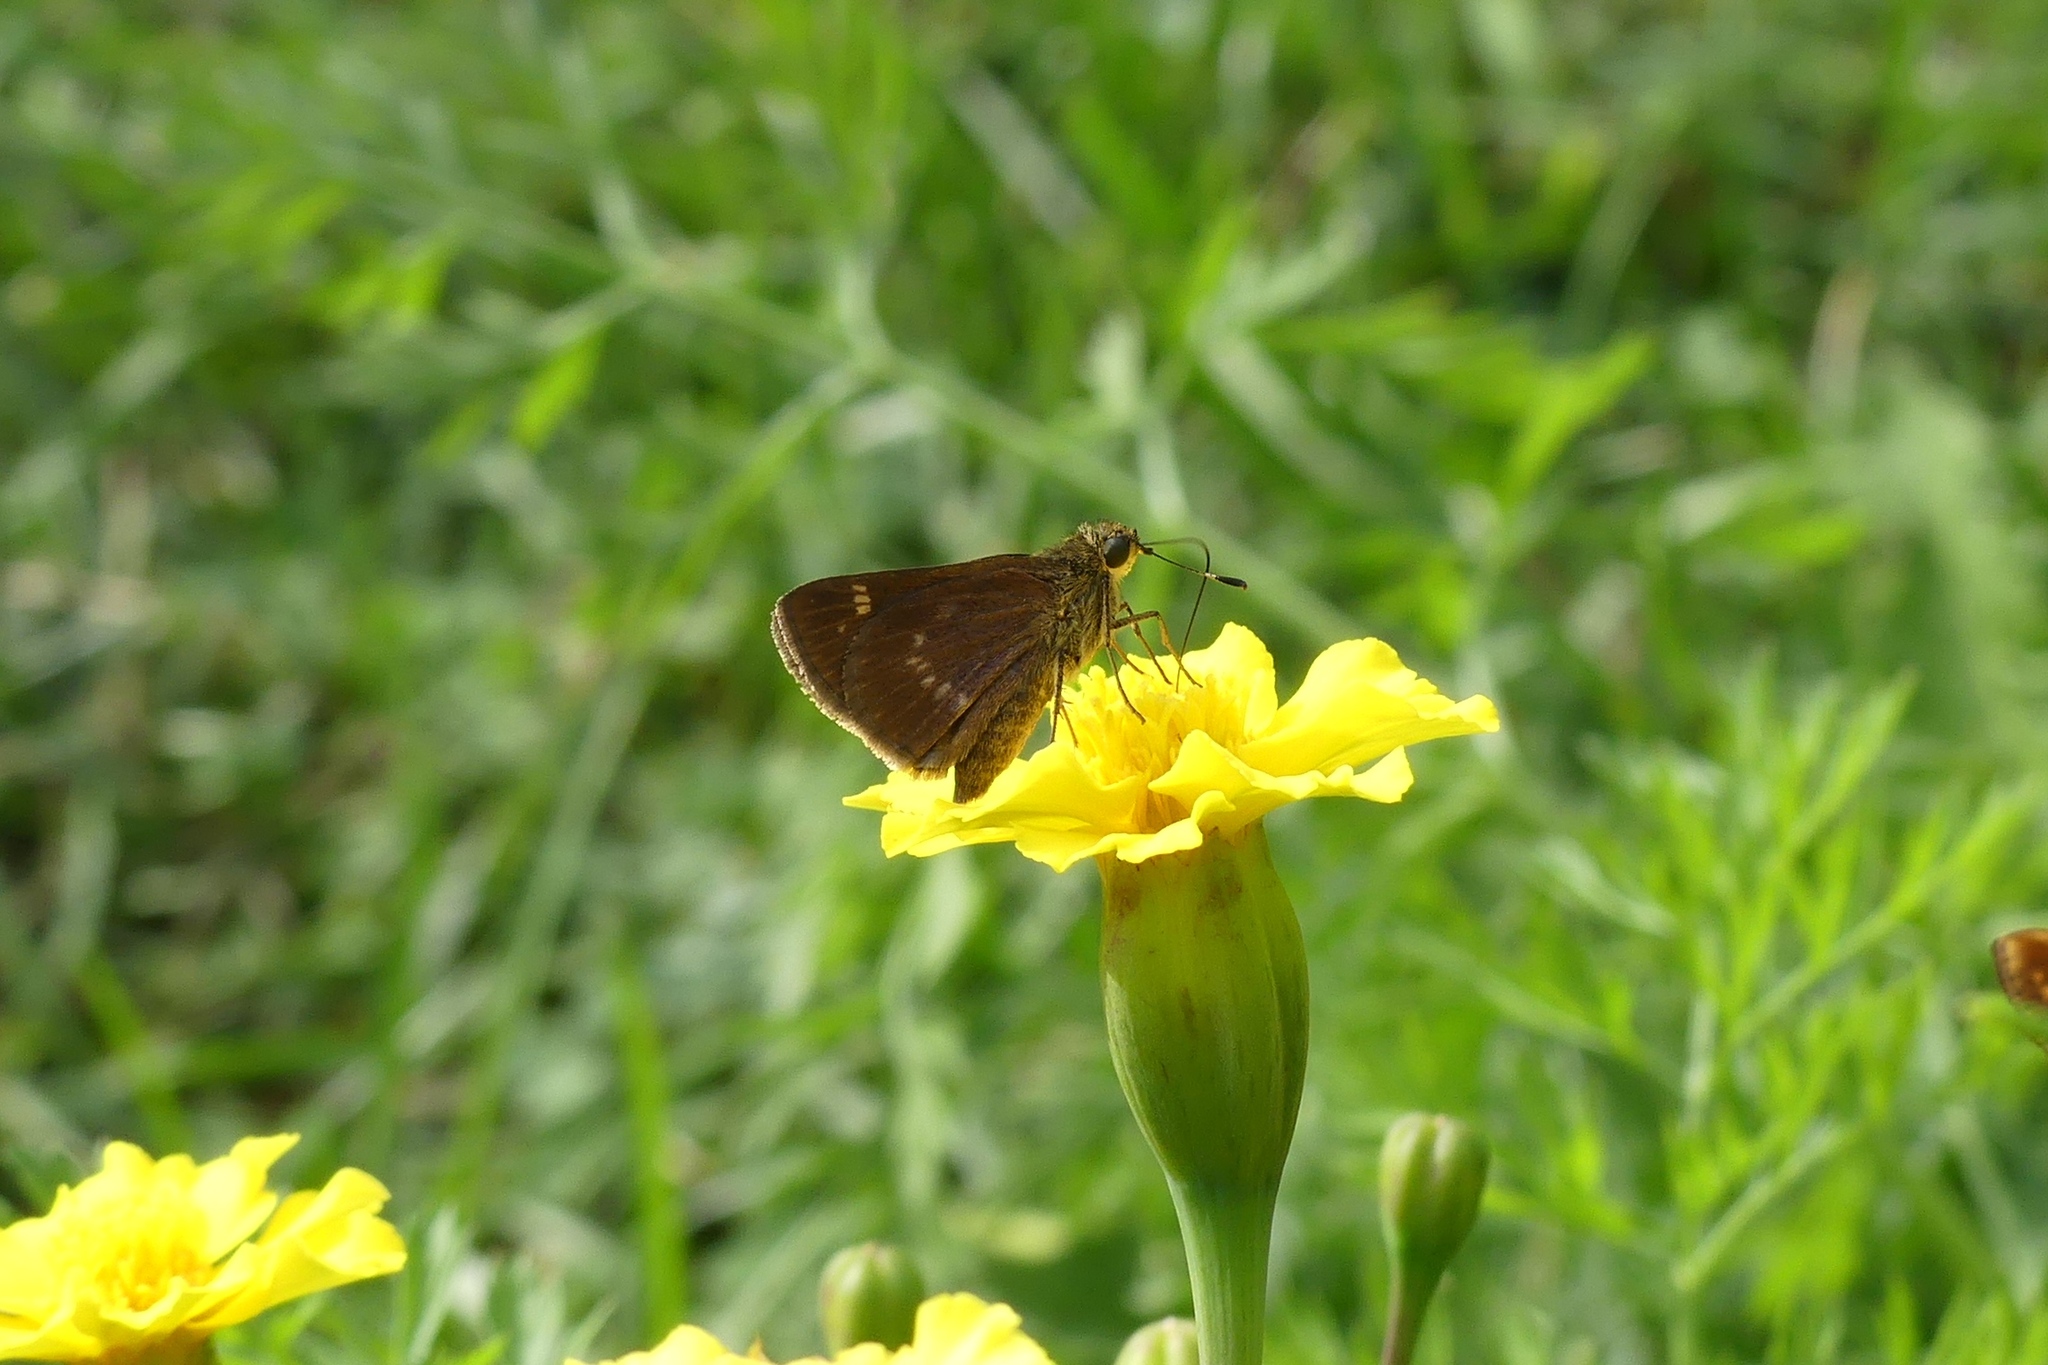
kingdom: Animalia
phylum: Arthropoda
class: Insecta
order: Lepidoptera
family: Hesperiidae
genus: Vernia
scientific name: Vernia verna
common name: Little glassywing
